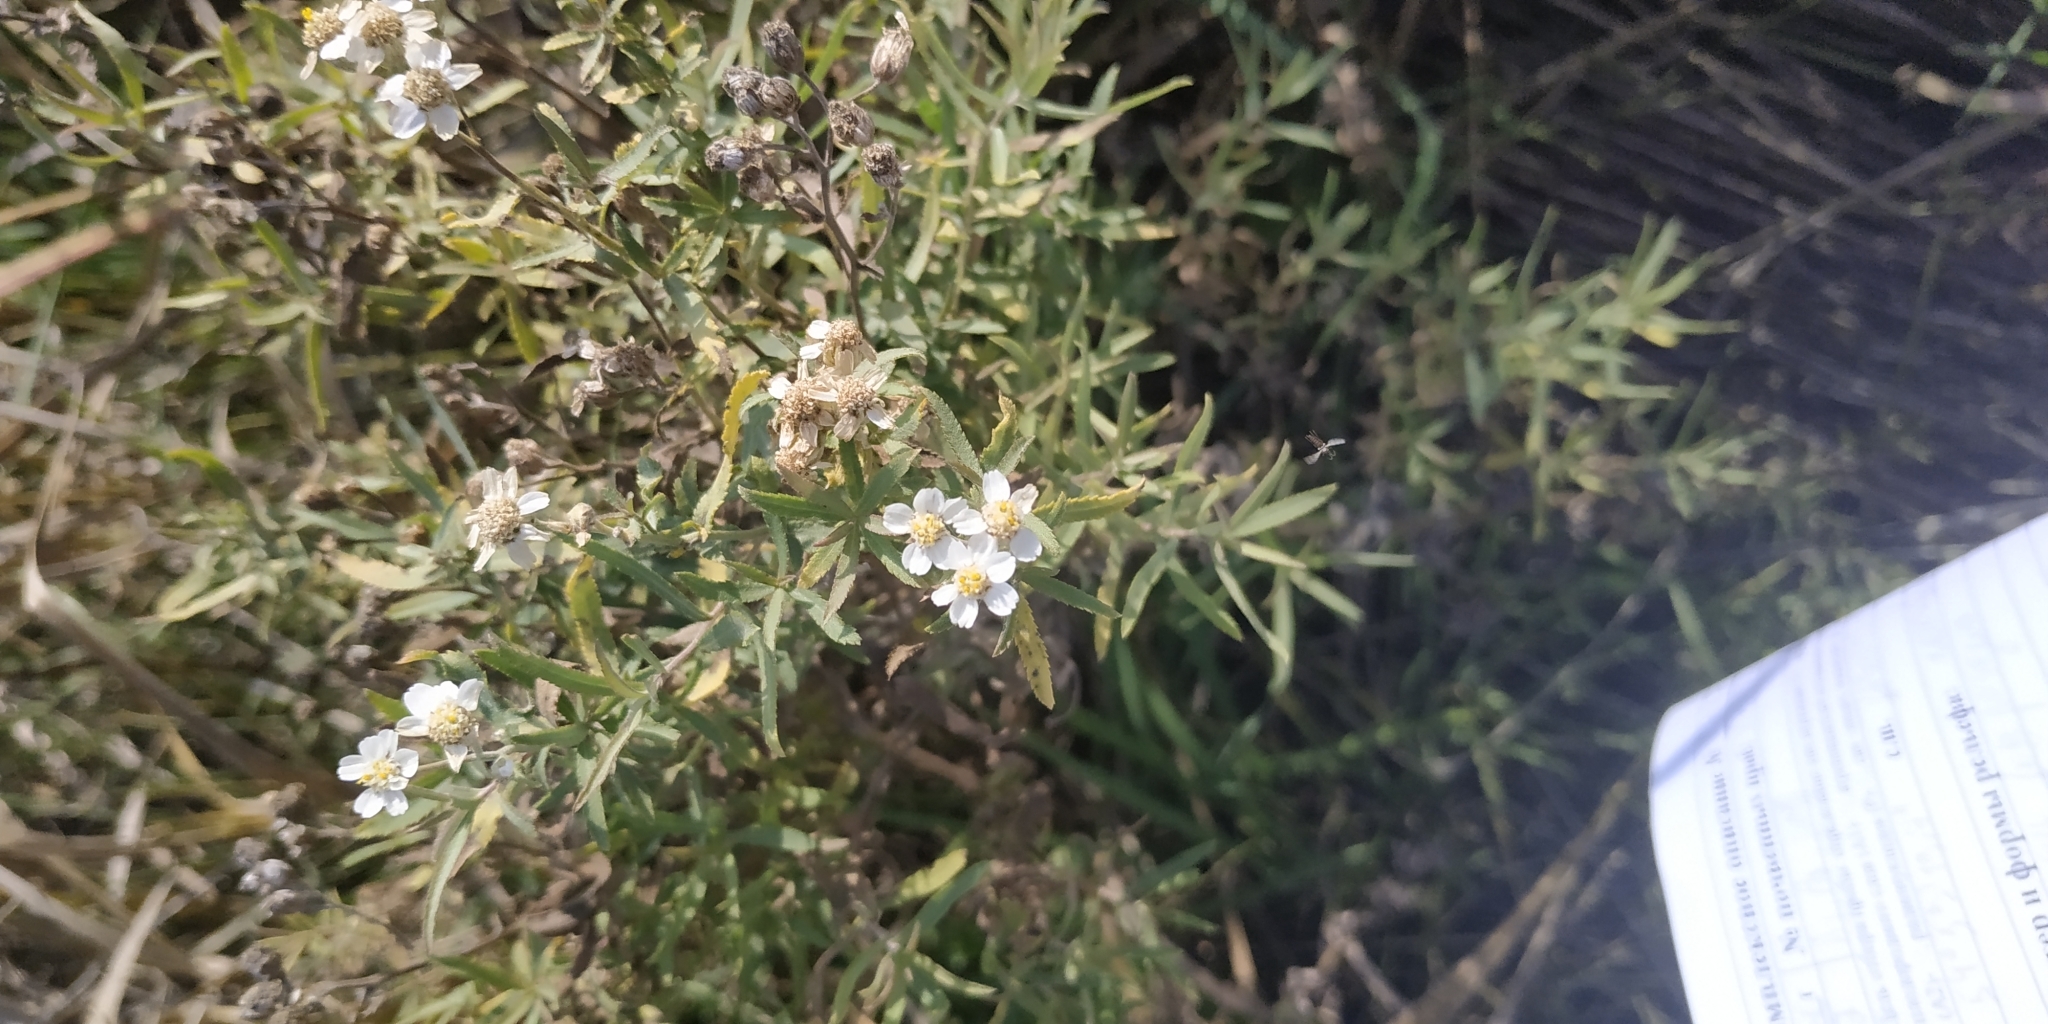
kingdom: Plantae
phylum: Tracheophyta
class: Magnoliopsida
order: Asterales
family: Asteraceae
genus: Achillea
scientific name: Achillea salicifolia
